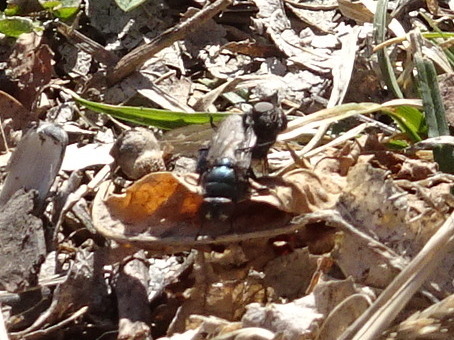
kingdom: Animalia
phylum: Arthropoda
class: Insecta
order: Diptera
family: Calliphoridae
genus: Phormia
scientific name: Phormia regina
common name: Black blow fly
